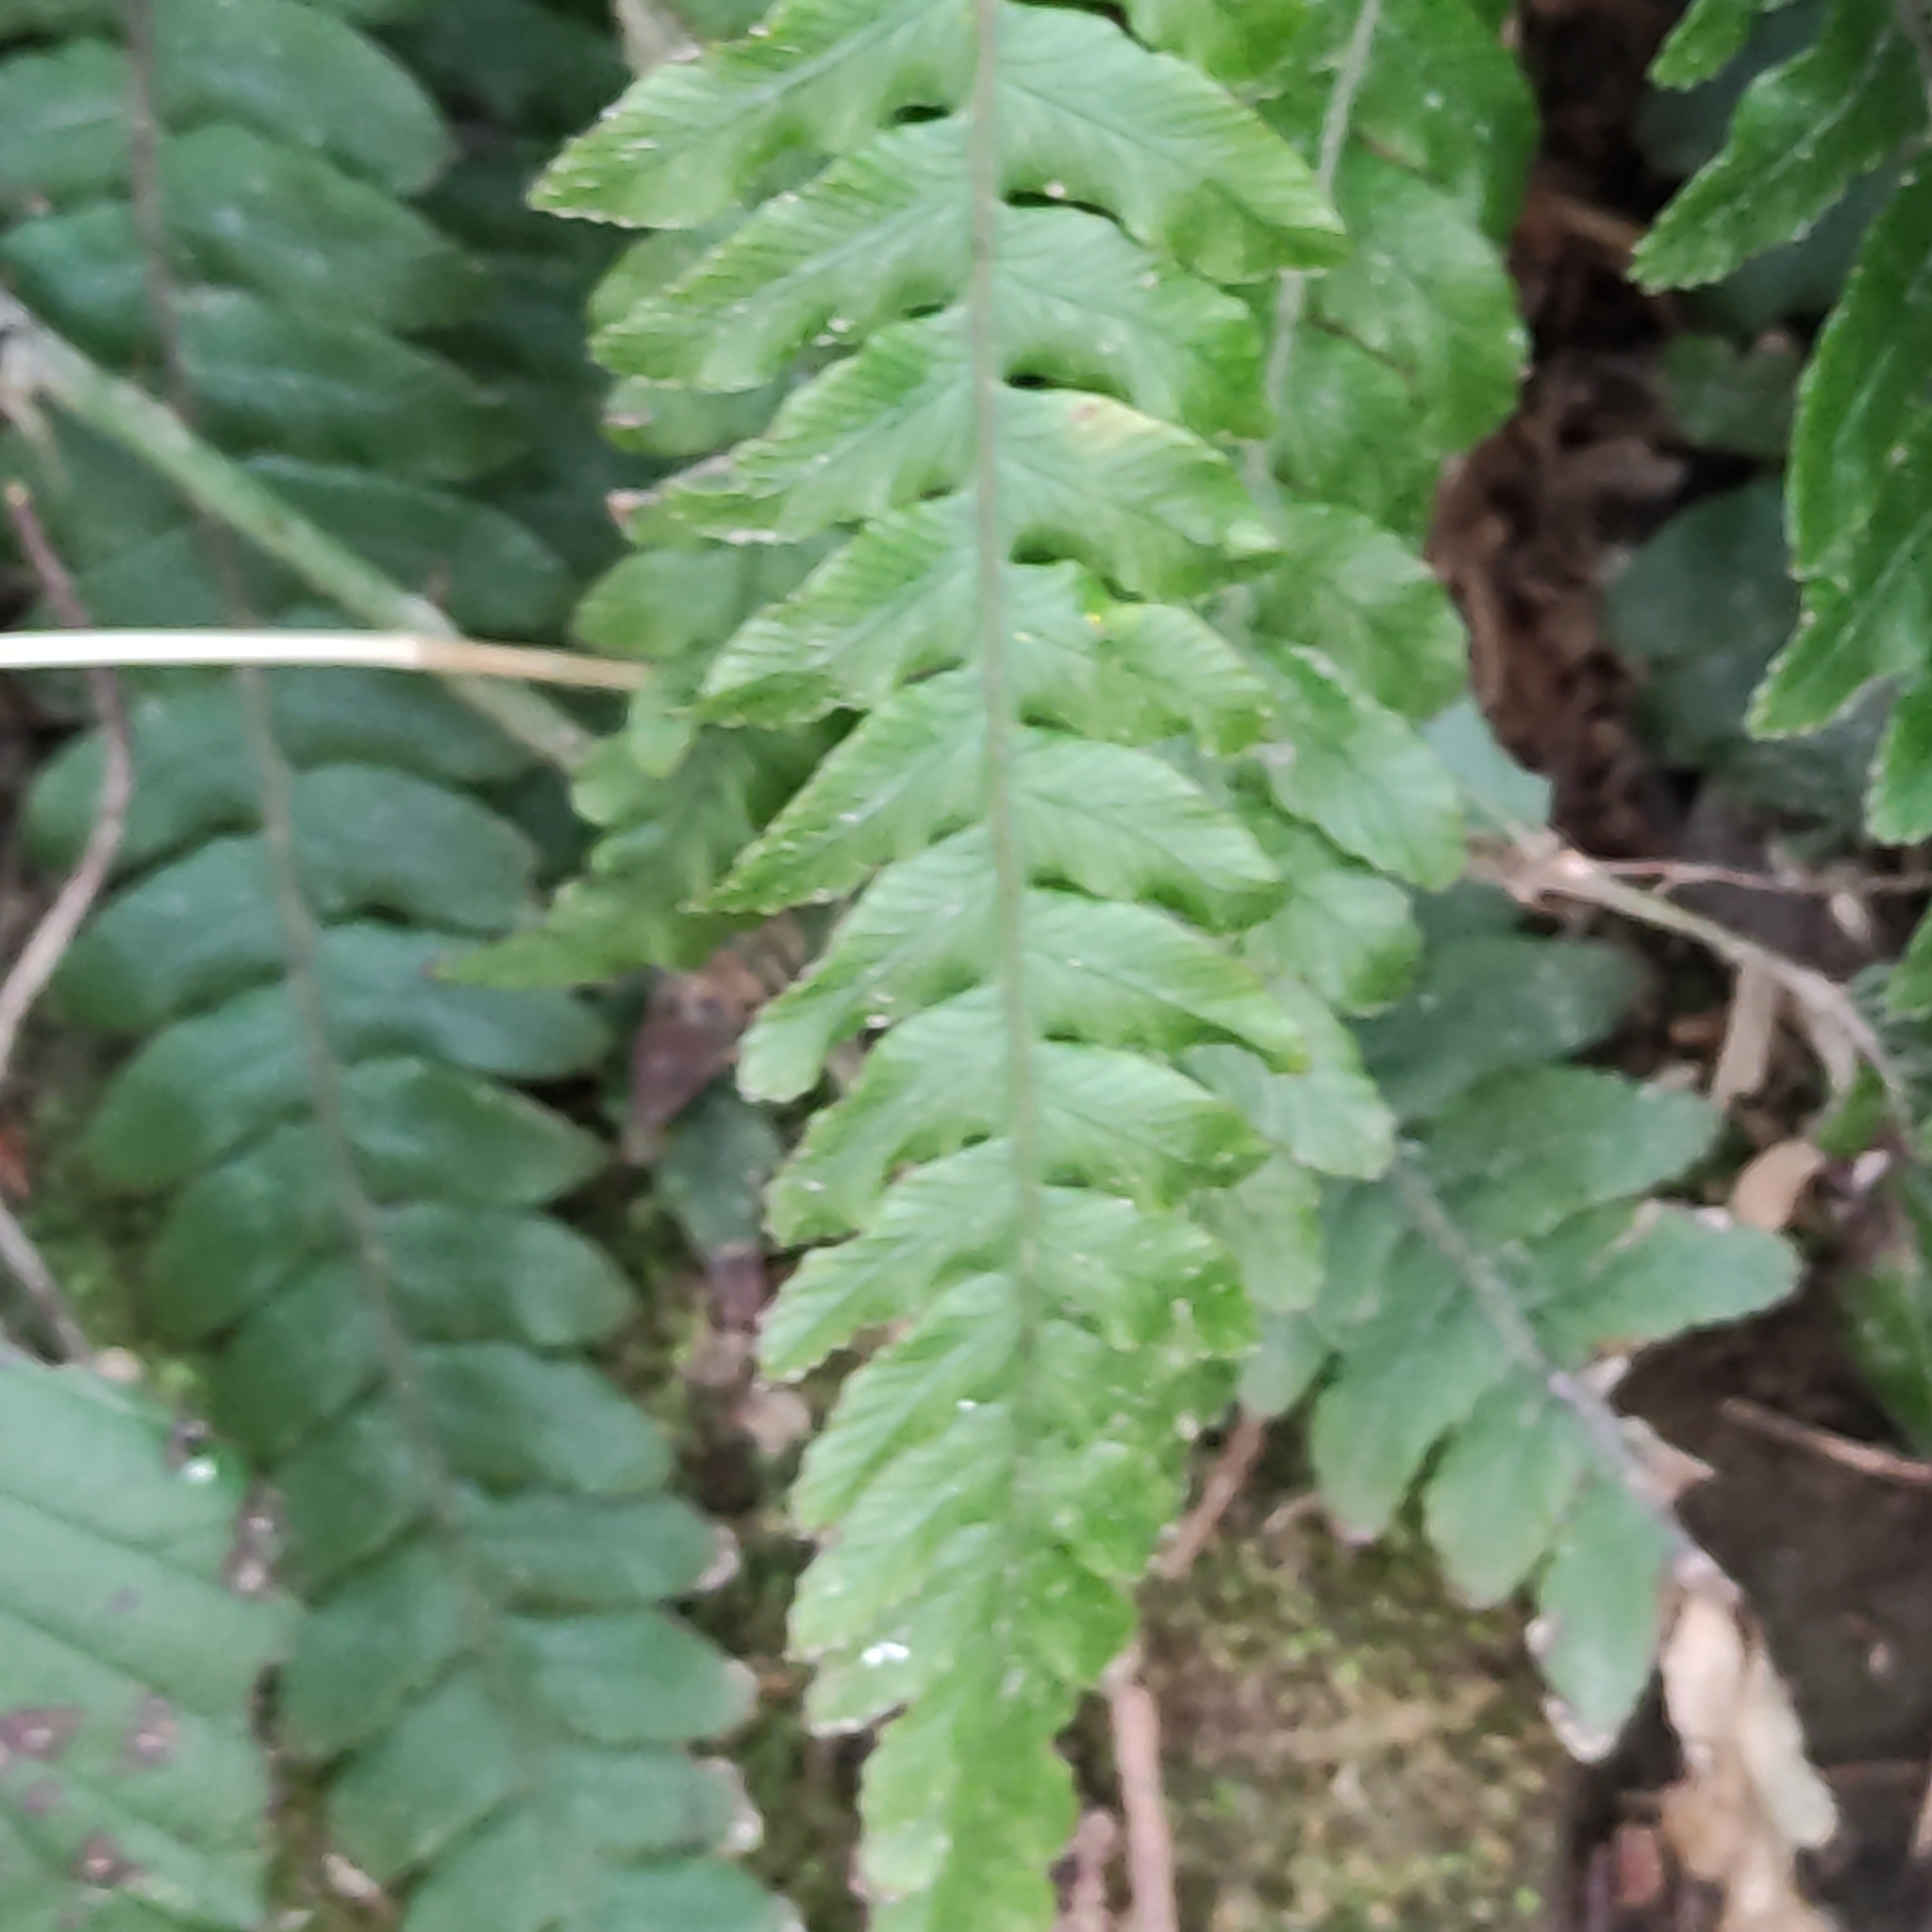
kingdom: Plantae
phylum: Tracheophyta
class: Polypodiopsida
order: Polypodiales
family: Blechnaceae
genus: Austroblechnum
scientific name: Austroblechnum lanceolatum
